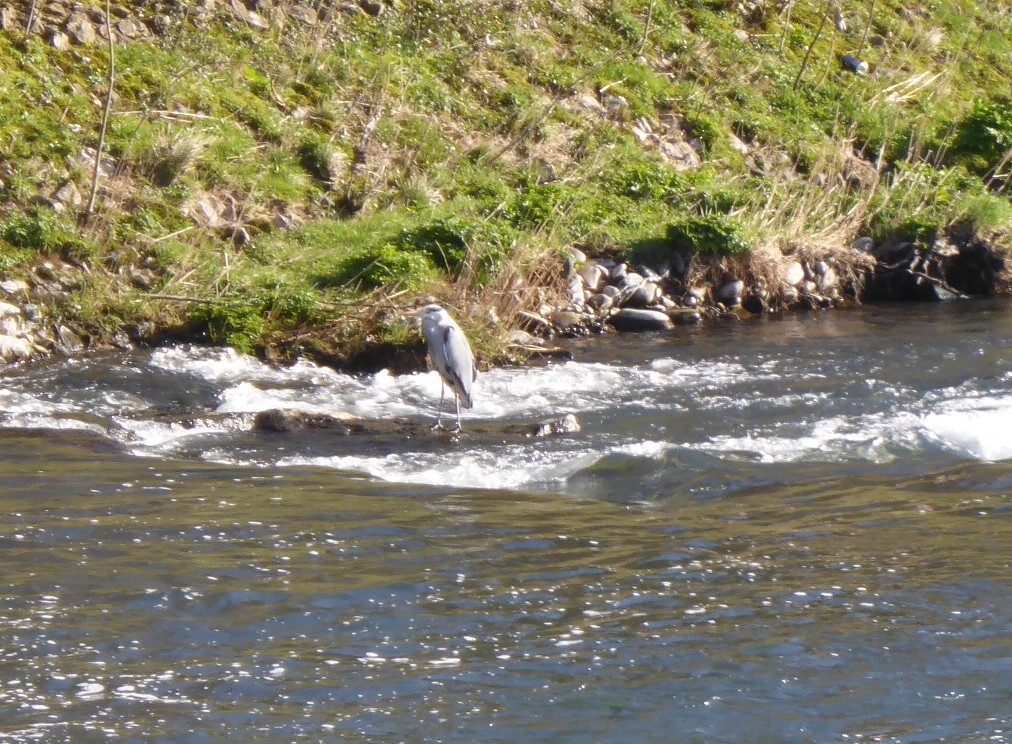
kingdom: Animalia
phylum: Chordata
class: Aves
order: Pelecaniformes
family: Ardeidae
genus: Ardea
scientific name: Ardea cinerea
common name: Grey heron
